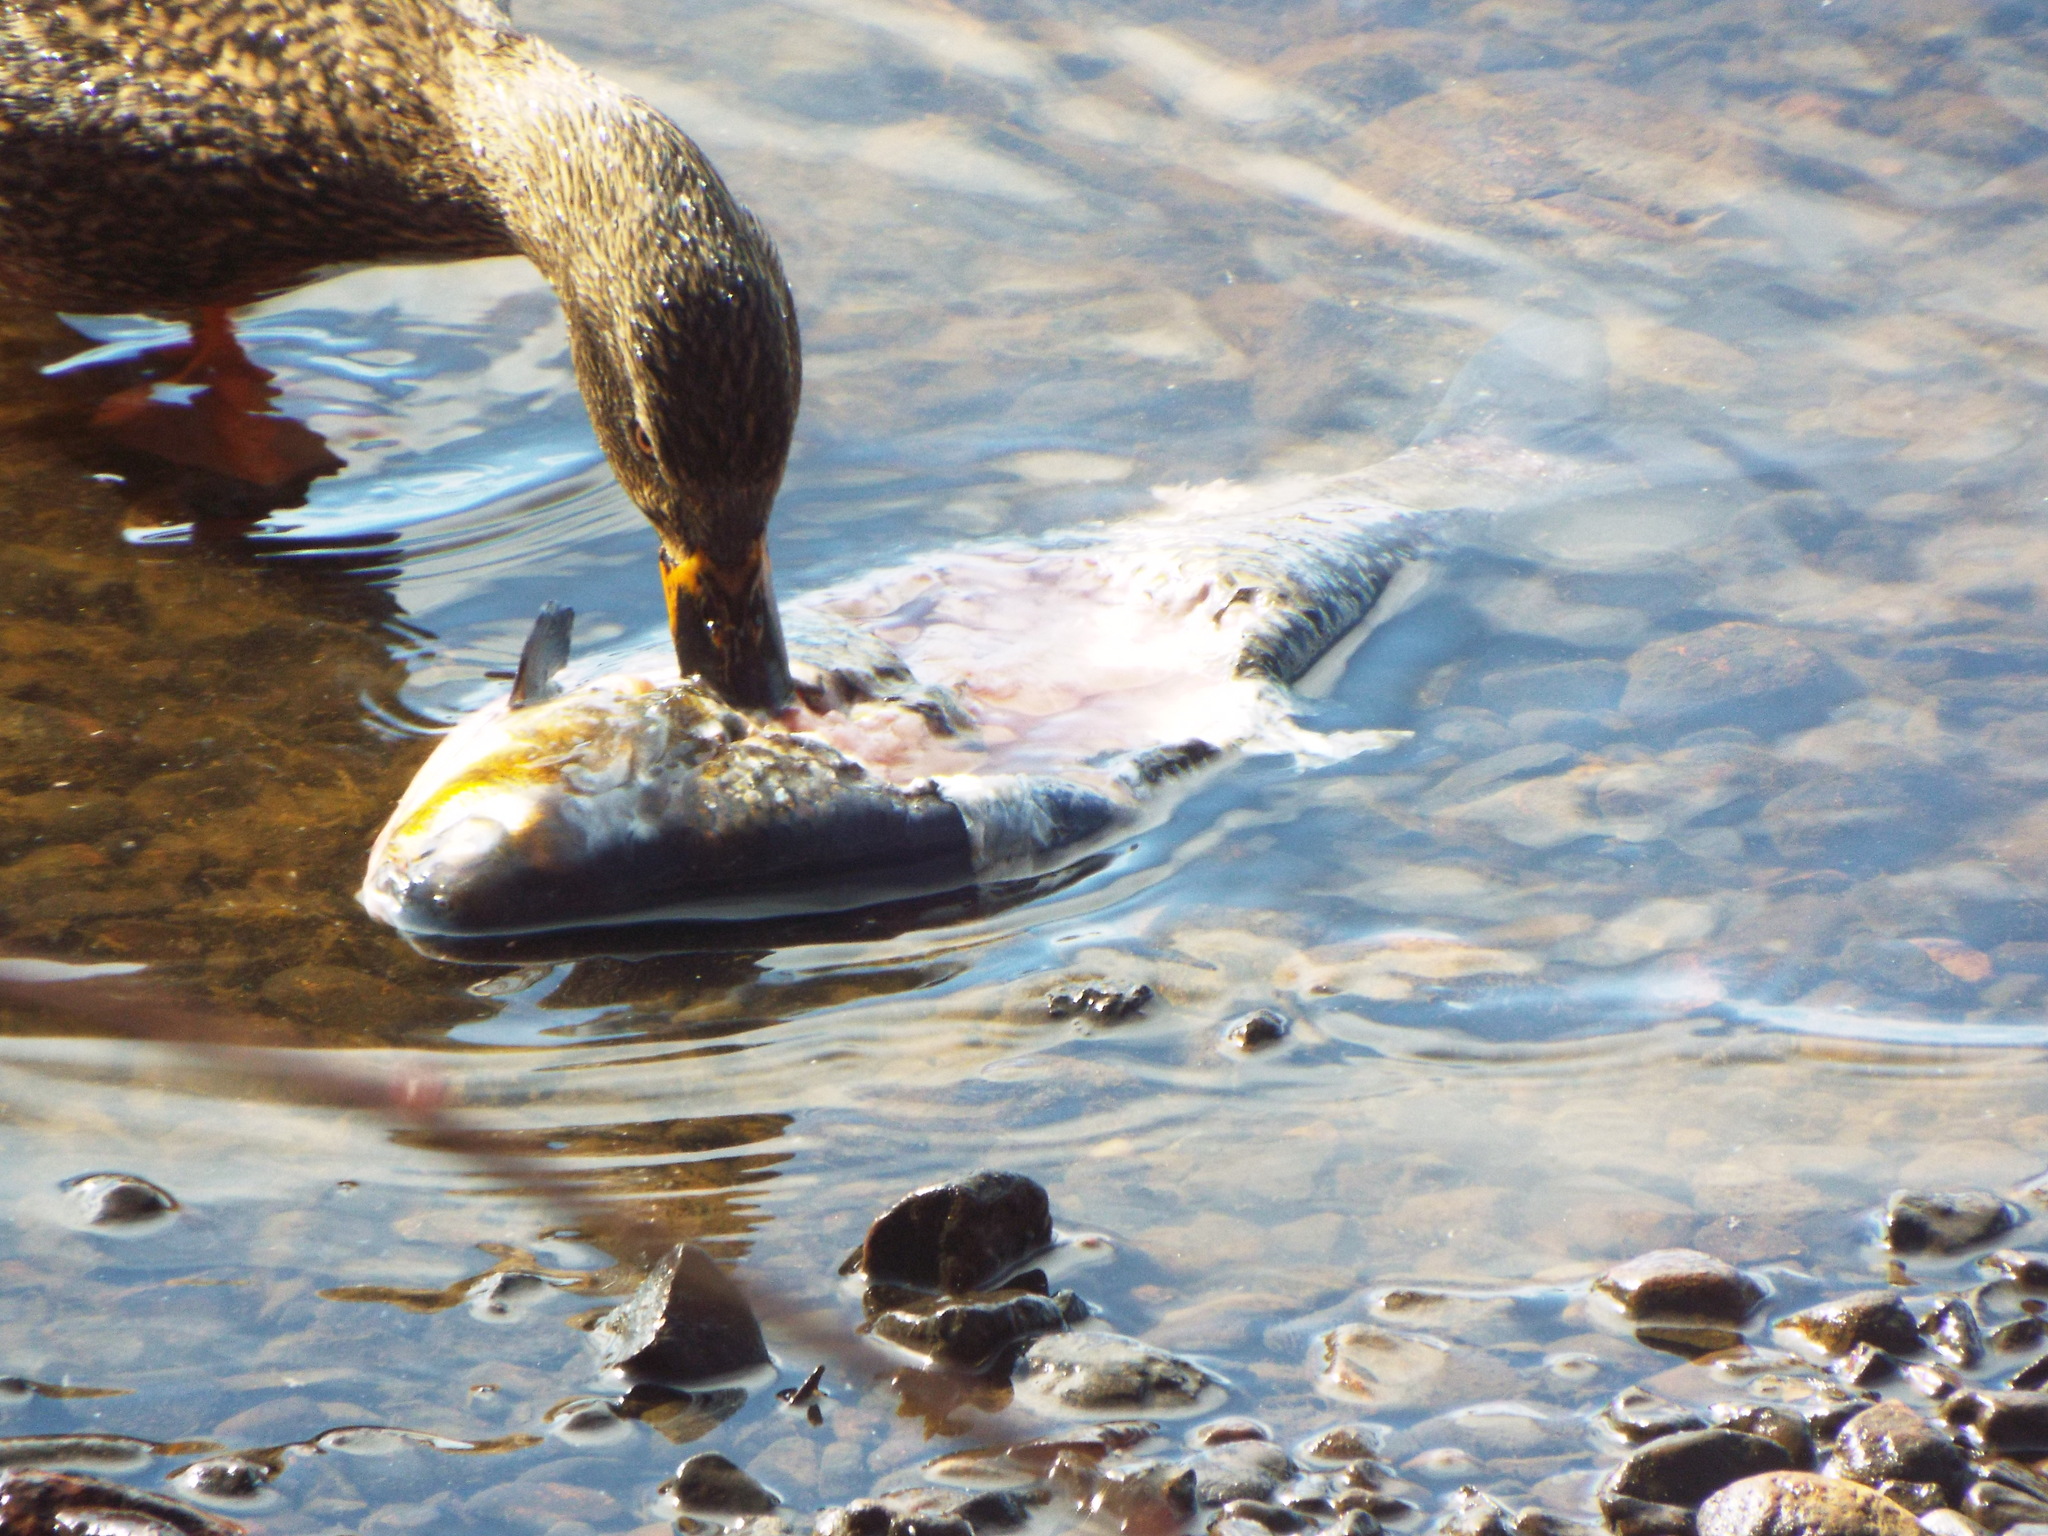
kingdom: Animalia
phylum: Chordata
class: Aves
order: Anseriformes
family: Anatidae
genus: Anas
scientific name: Anas platyrhynchos
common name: Mallard
